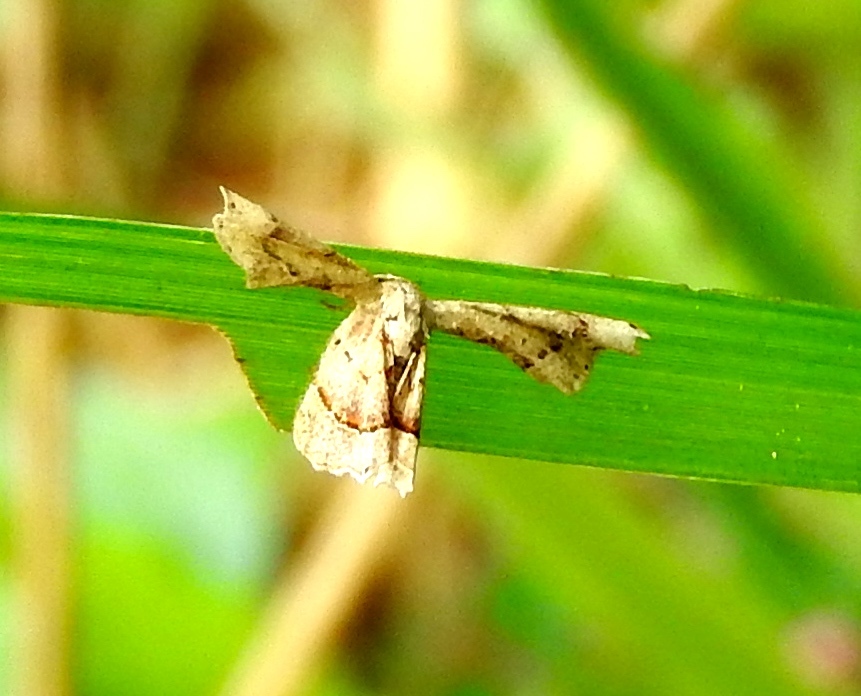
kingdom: Animalia
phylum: Arthropoda
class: Insecta
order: Lepidoptera
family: Uraniidae
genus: Antiplecta
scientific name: Antiplecta triangularis
